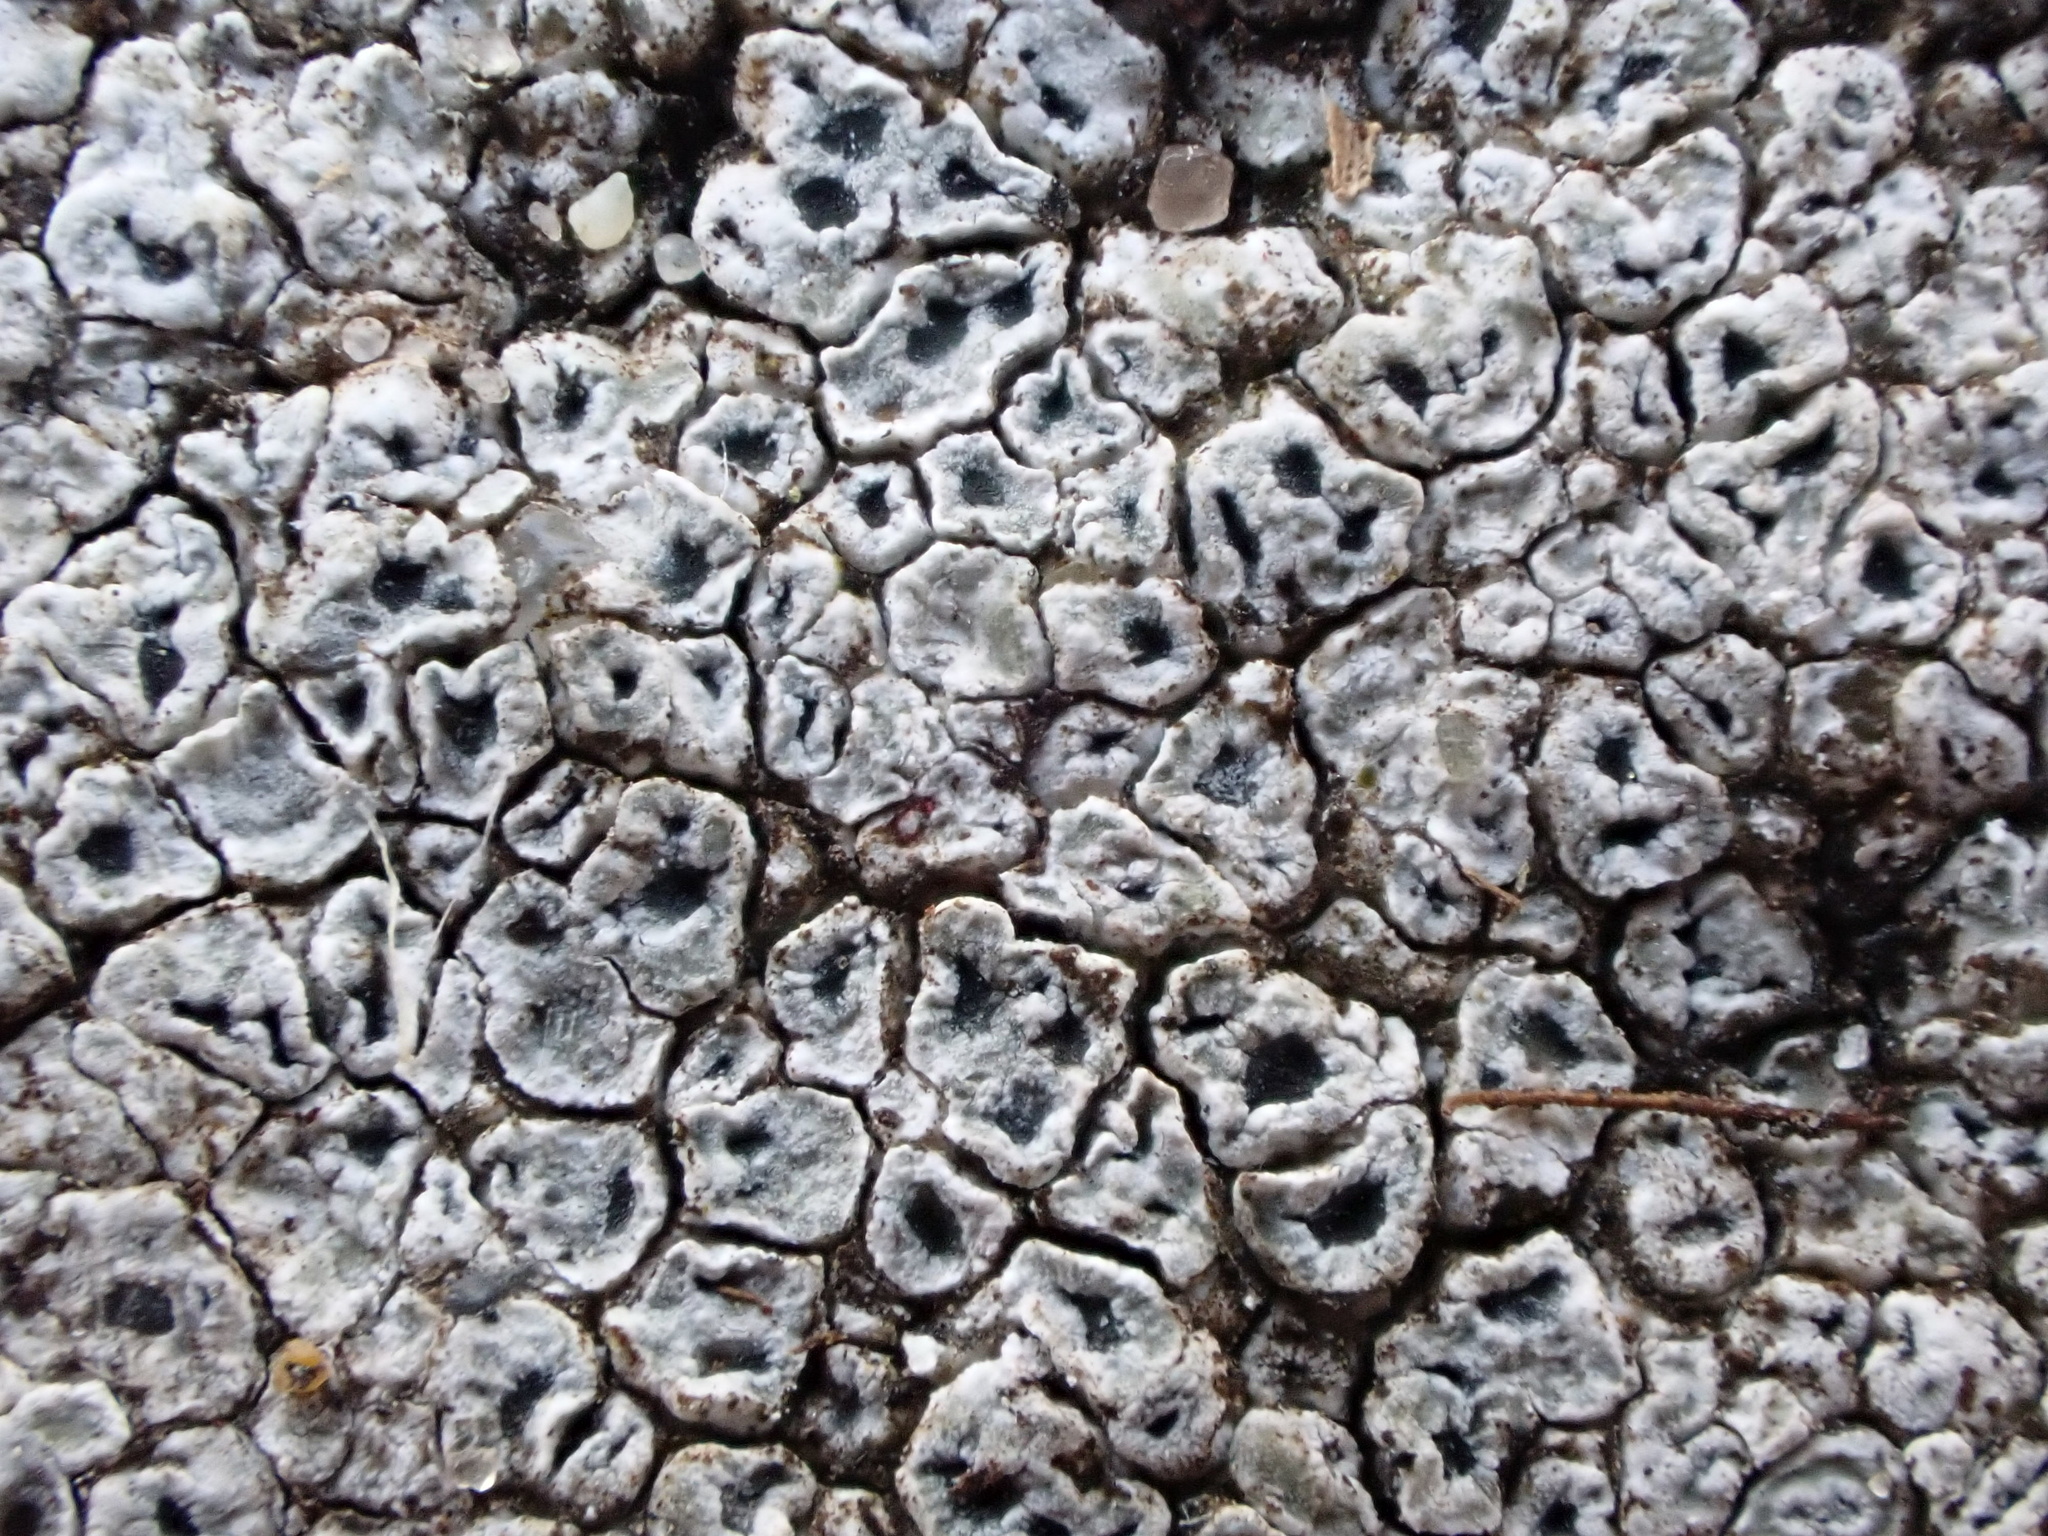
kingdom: Fungi
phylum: Ascomycota
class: Lecanoromycetes
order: Pertusariales
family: Megasporaceae
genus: Circinaria
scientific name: Circinaria contorta
